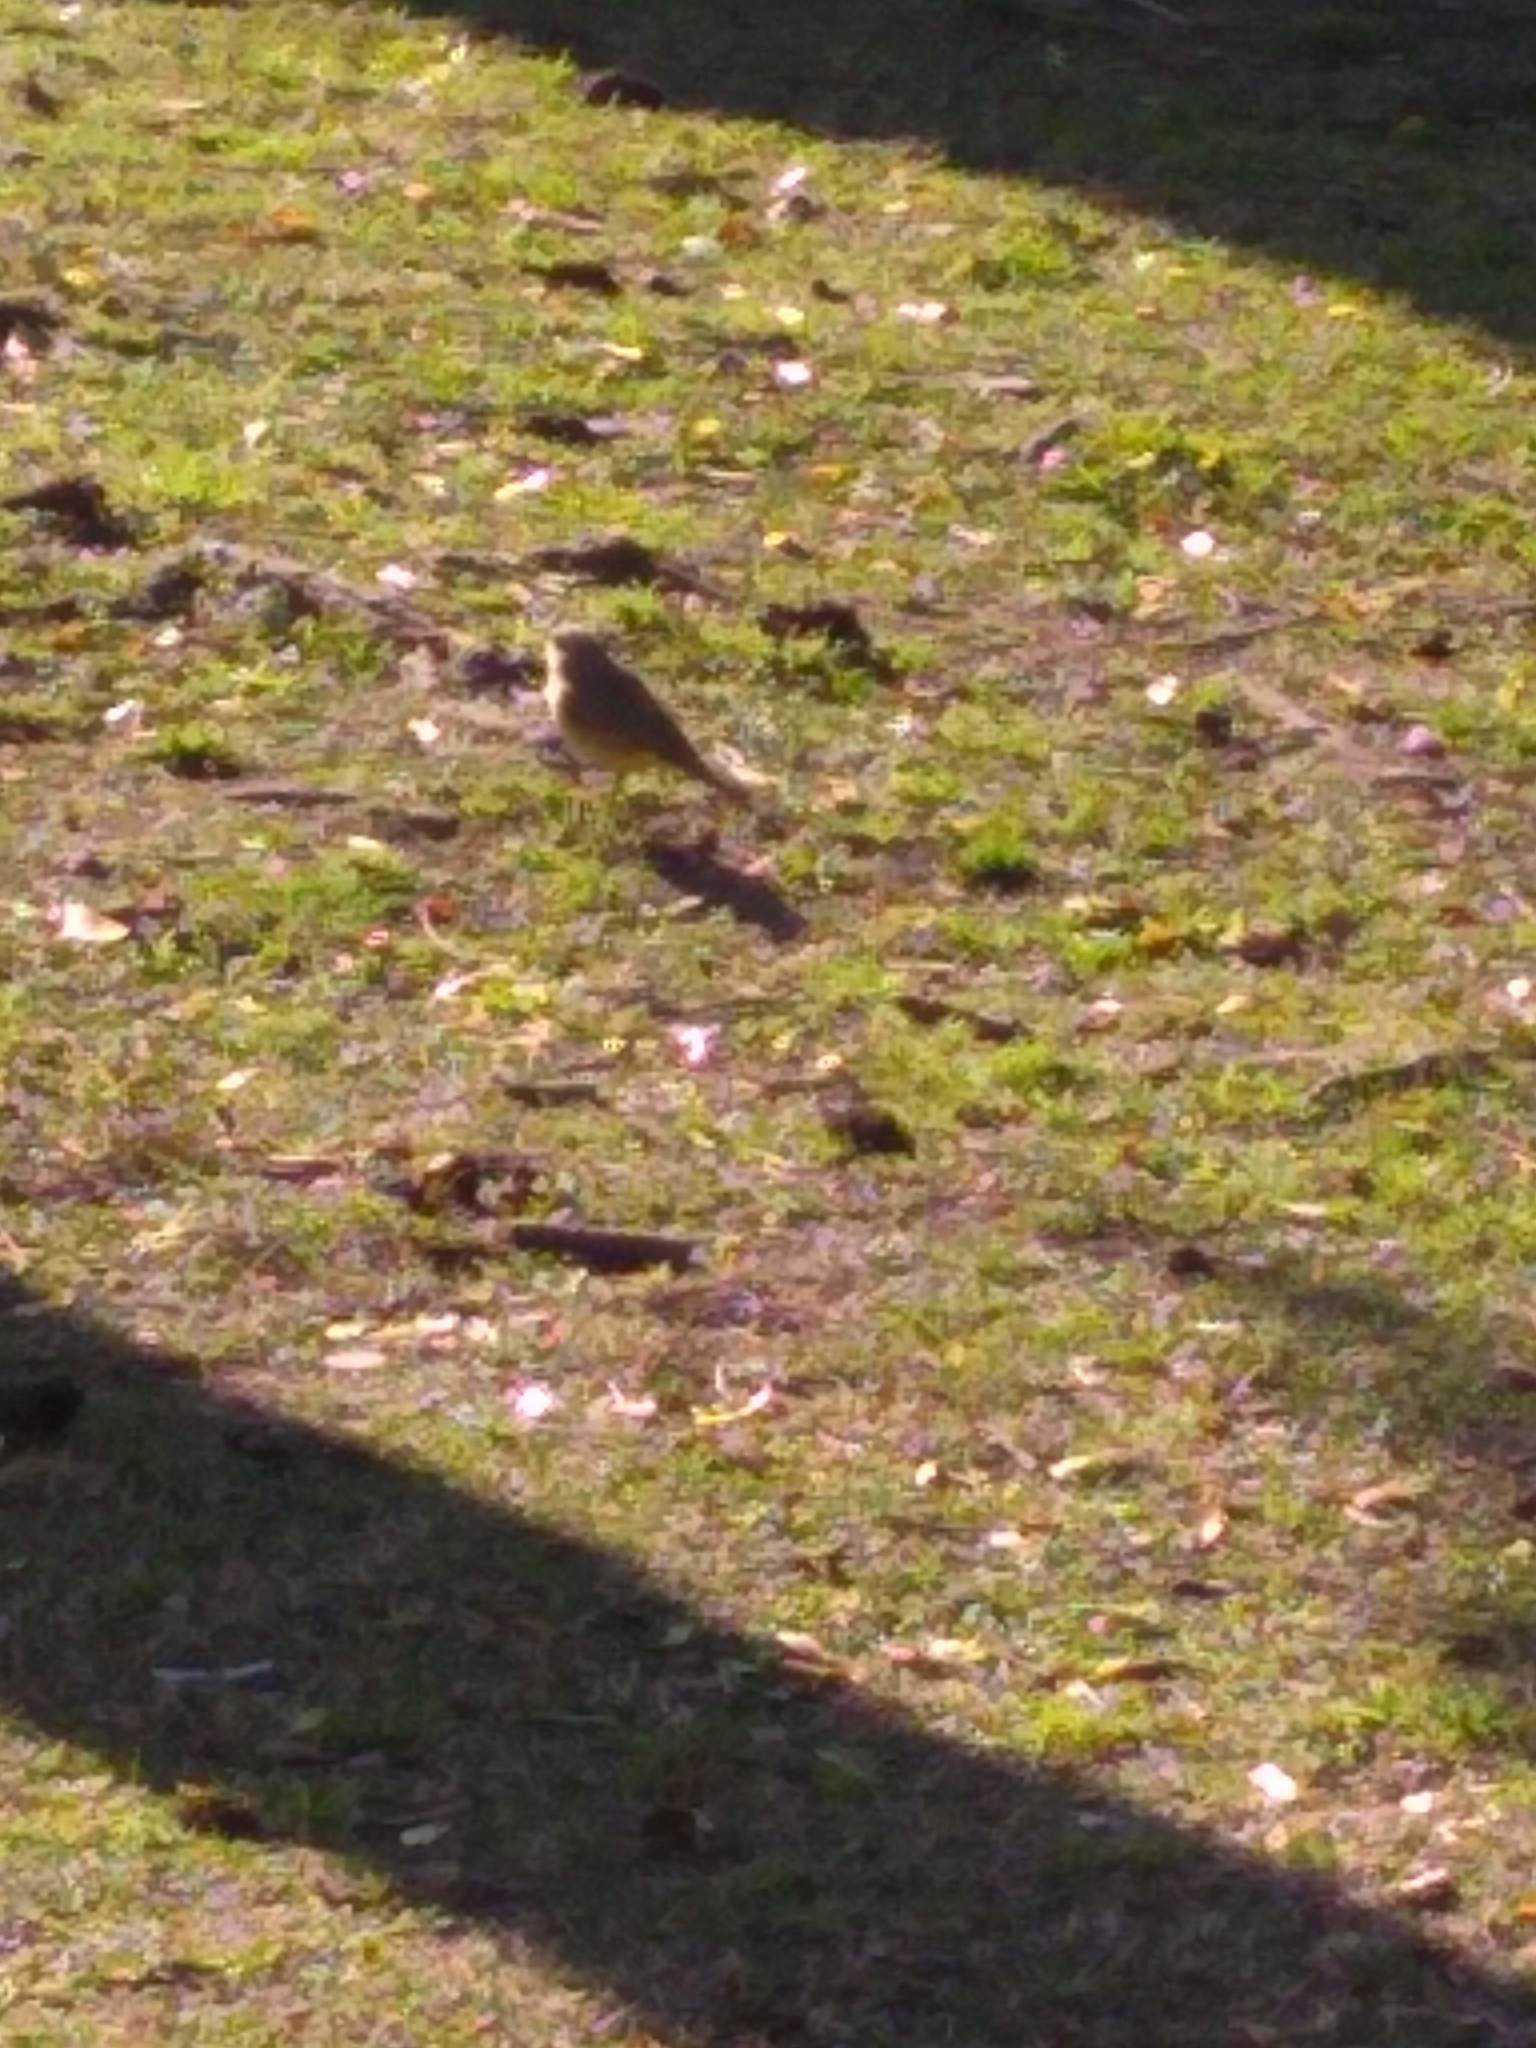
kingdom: Animalia
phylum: Chordata
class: Aves
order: Passeriformes
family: Tyrannidae
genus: Machetornis
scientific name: Machetornis rixosa
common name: Cattle tyrant
